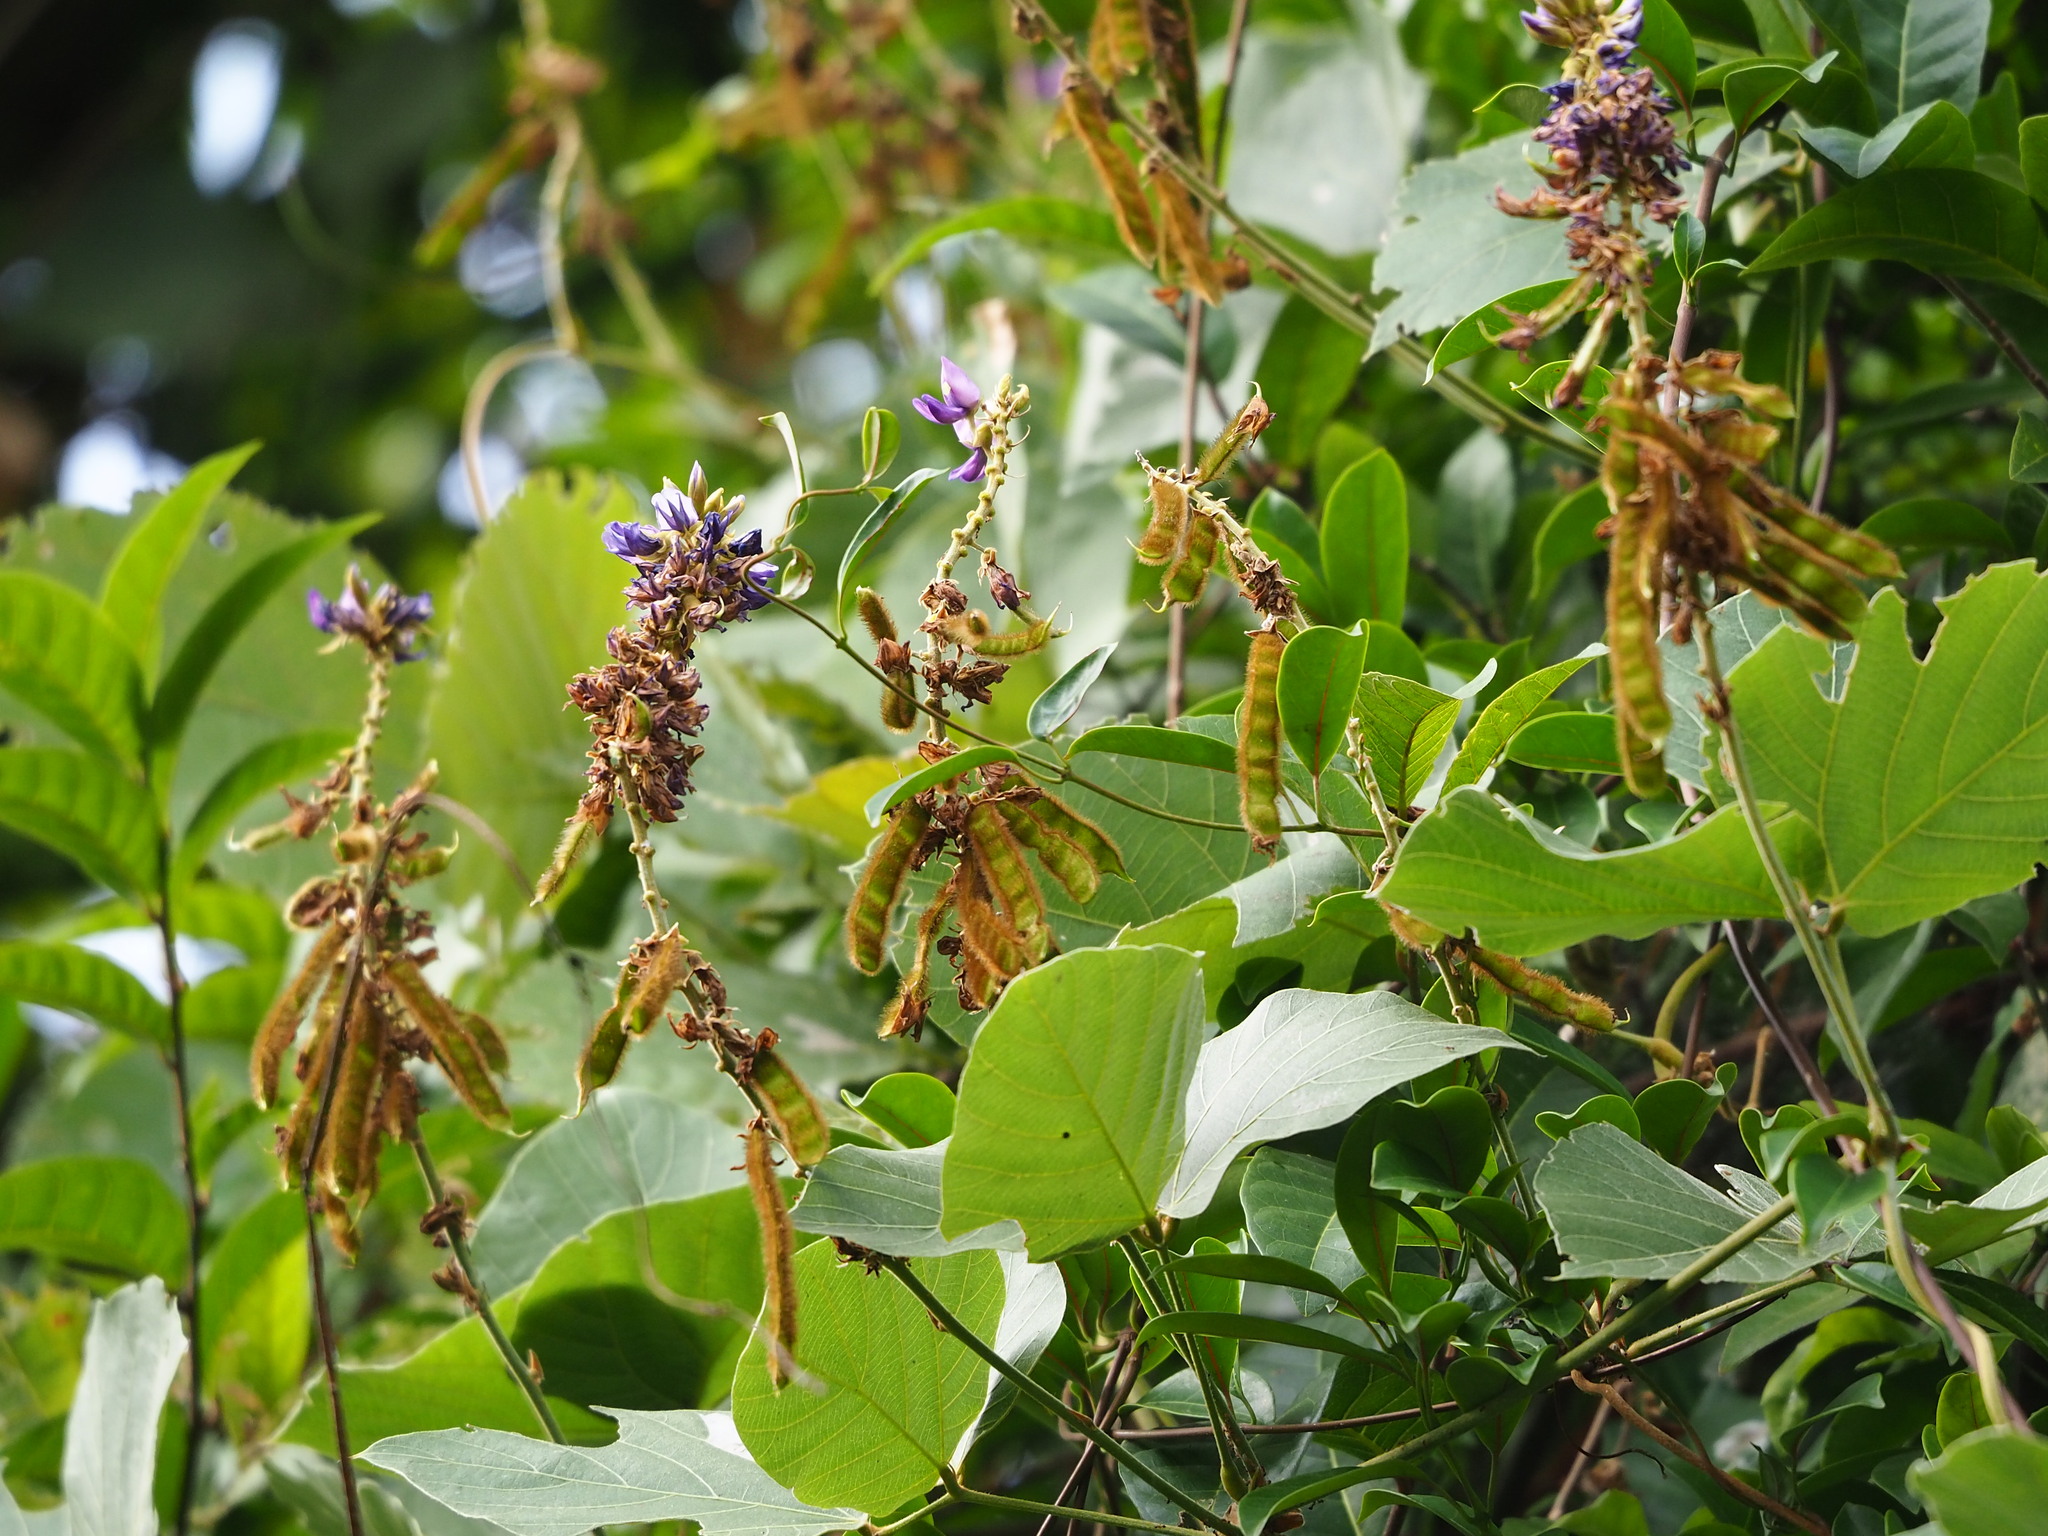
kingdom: Plantae
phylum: Tracheophyta
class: Magnoliopsida
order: Fabales
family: Fabaceae
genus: Pueraria
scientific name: Pueraria montana
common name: Kudzu
